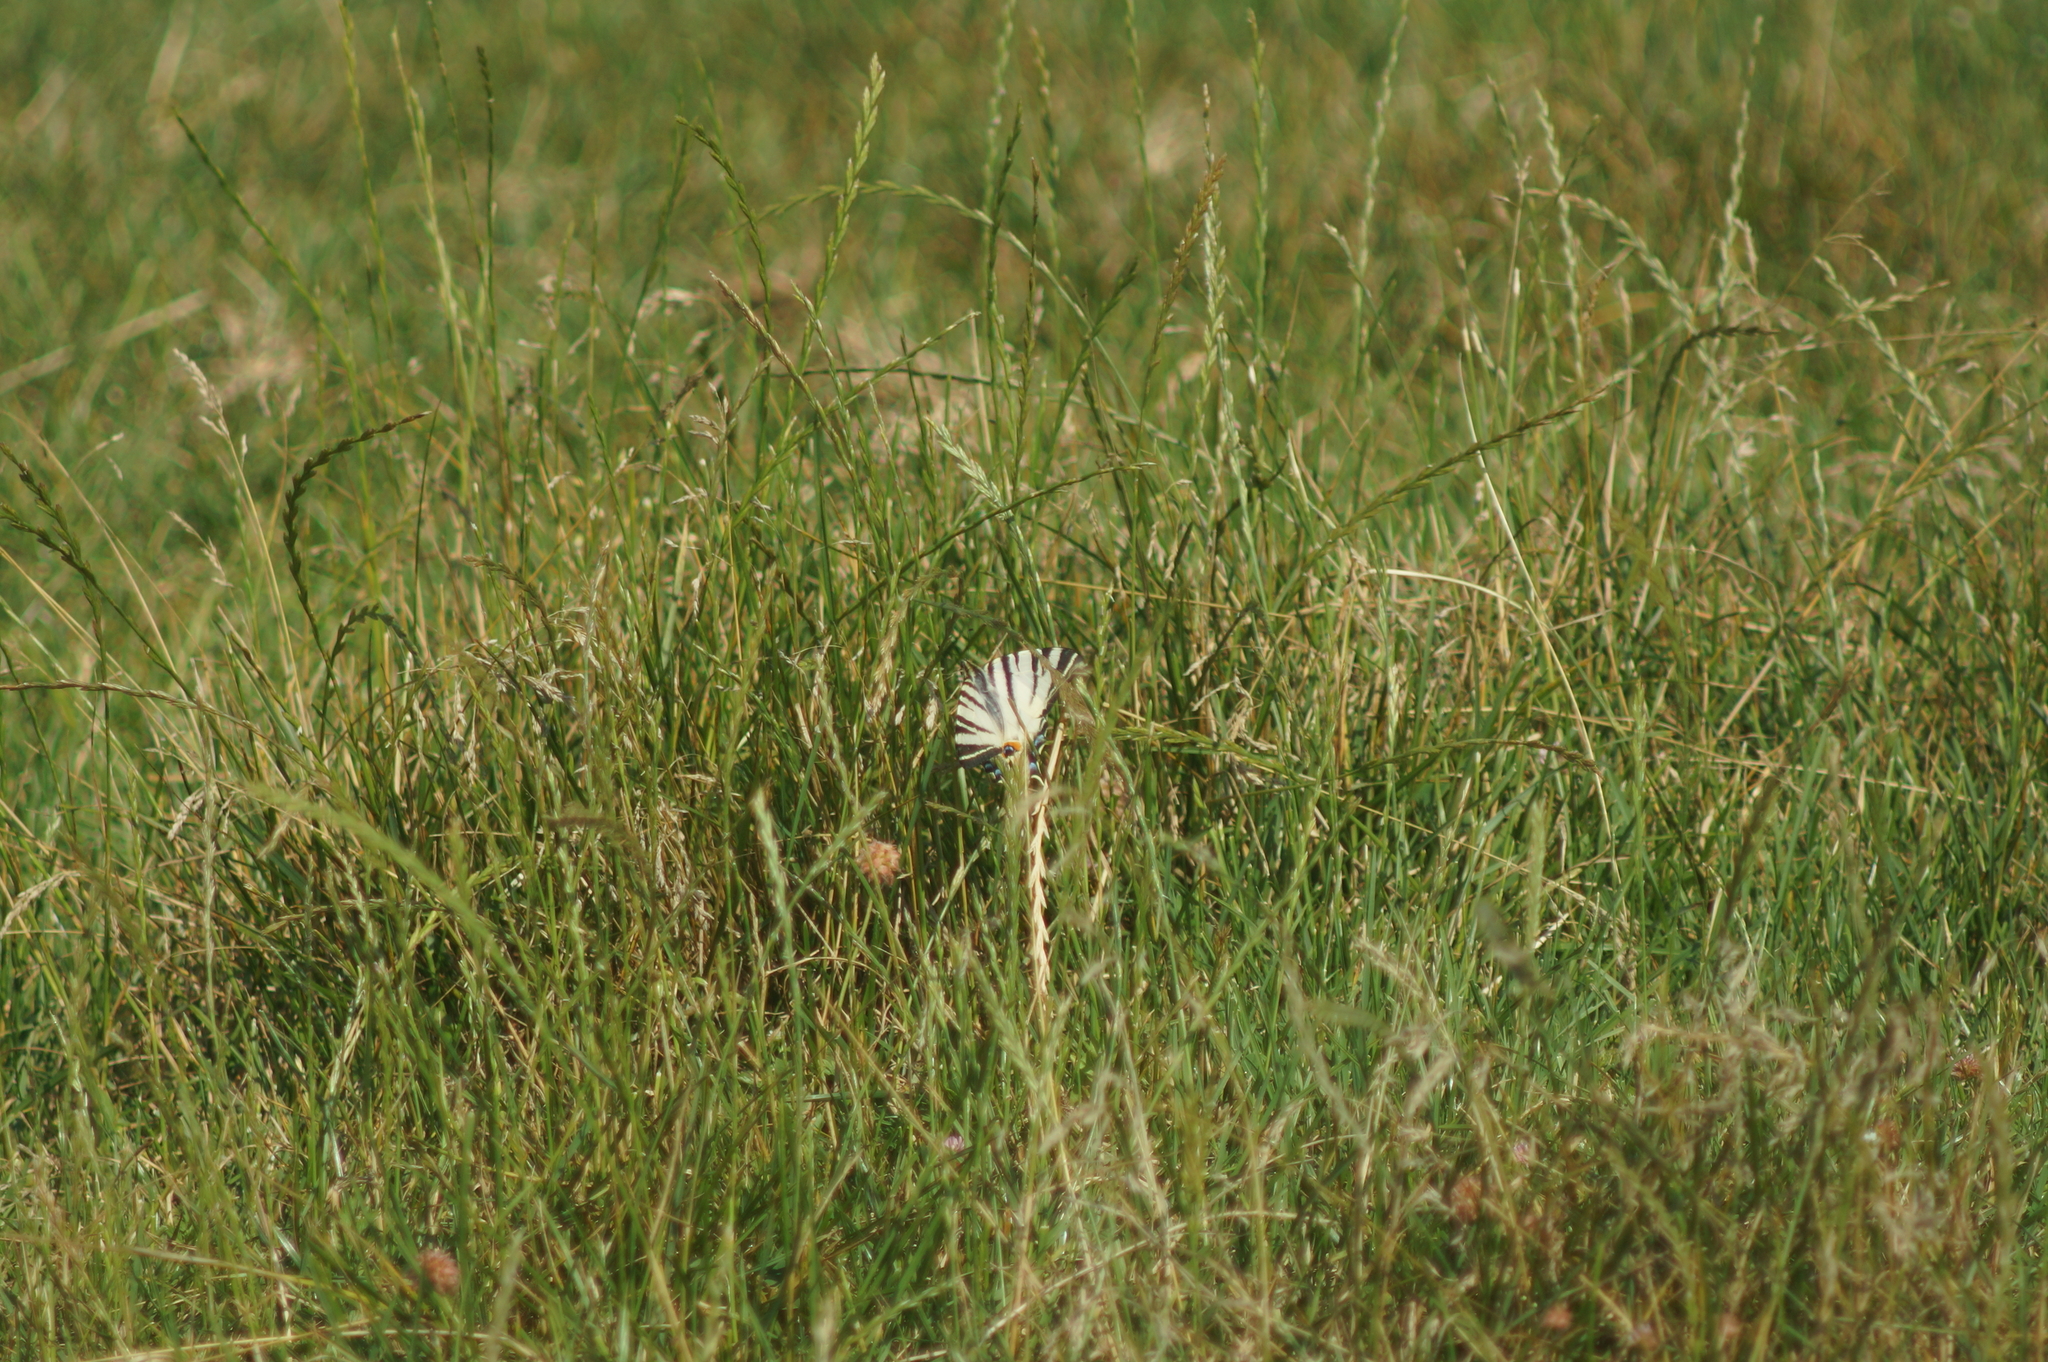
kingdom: Animalia
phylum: Arthropoda
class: Insecta
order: Lepidoptera
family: Papilionidae
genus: Iphiclides
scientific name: Iphiclides podalirius
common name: Scarce swallowtail
